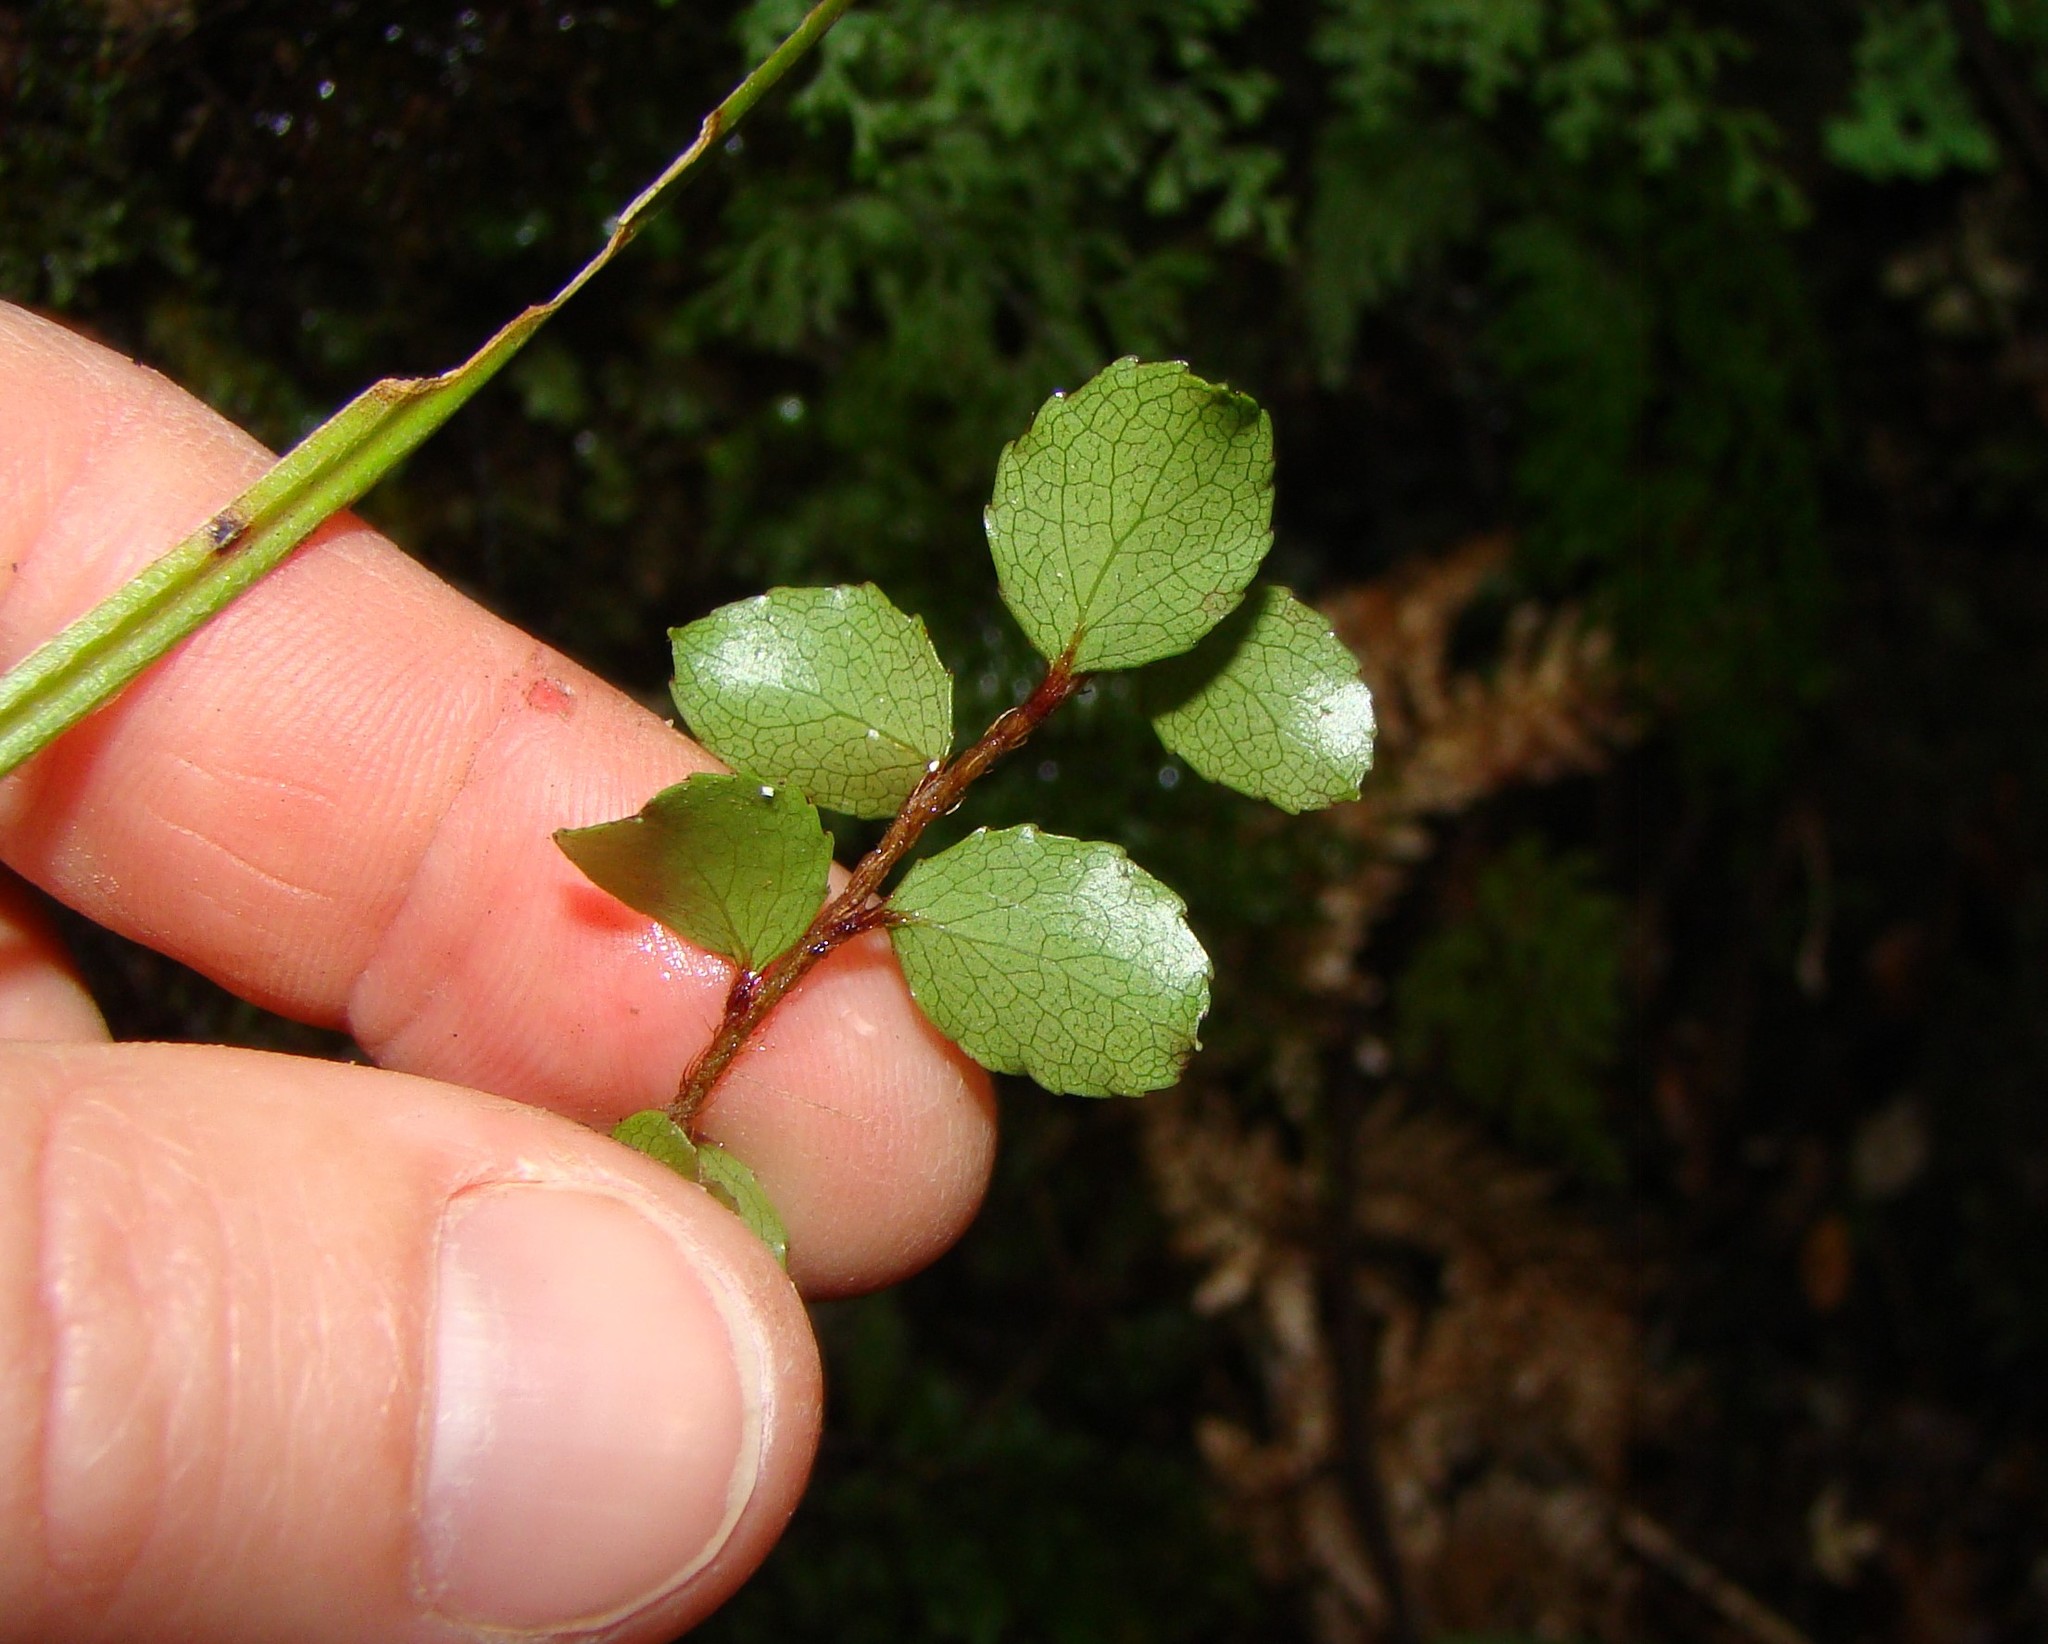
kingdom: Plantae
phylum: Tracheophyta
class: Magnoliopsida
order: Ericales
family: Ericaceae
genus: Gaultheria
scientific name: Gaultheria antipoda
